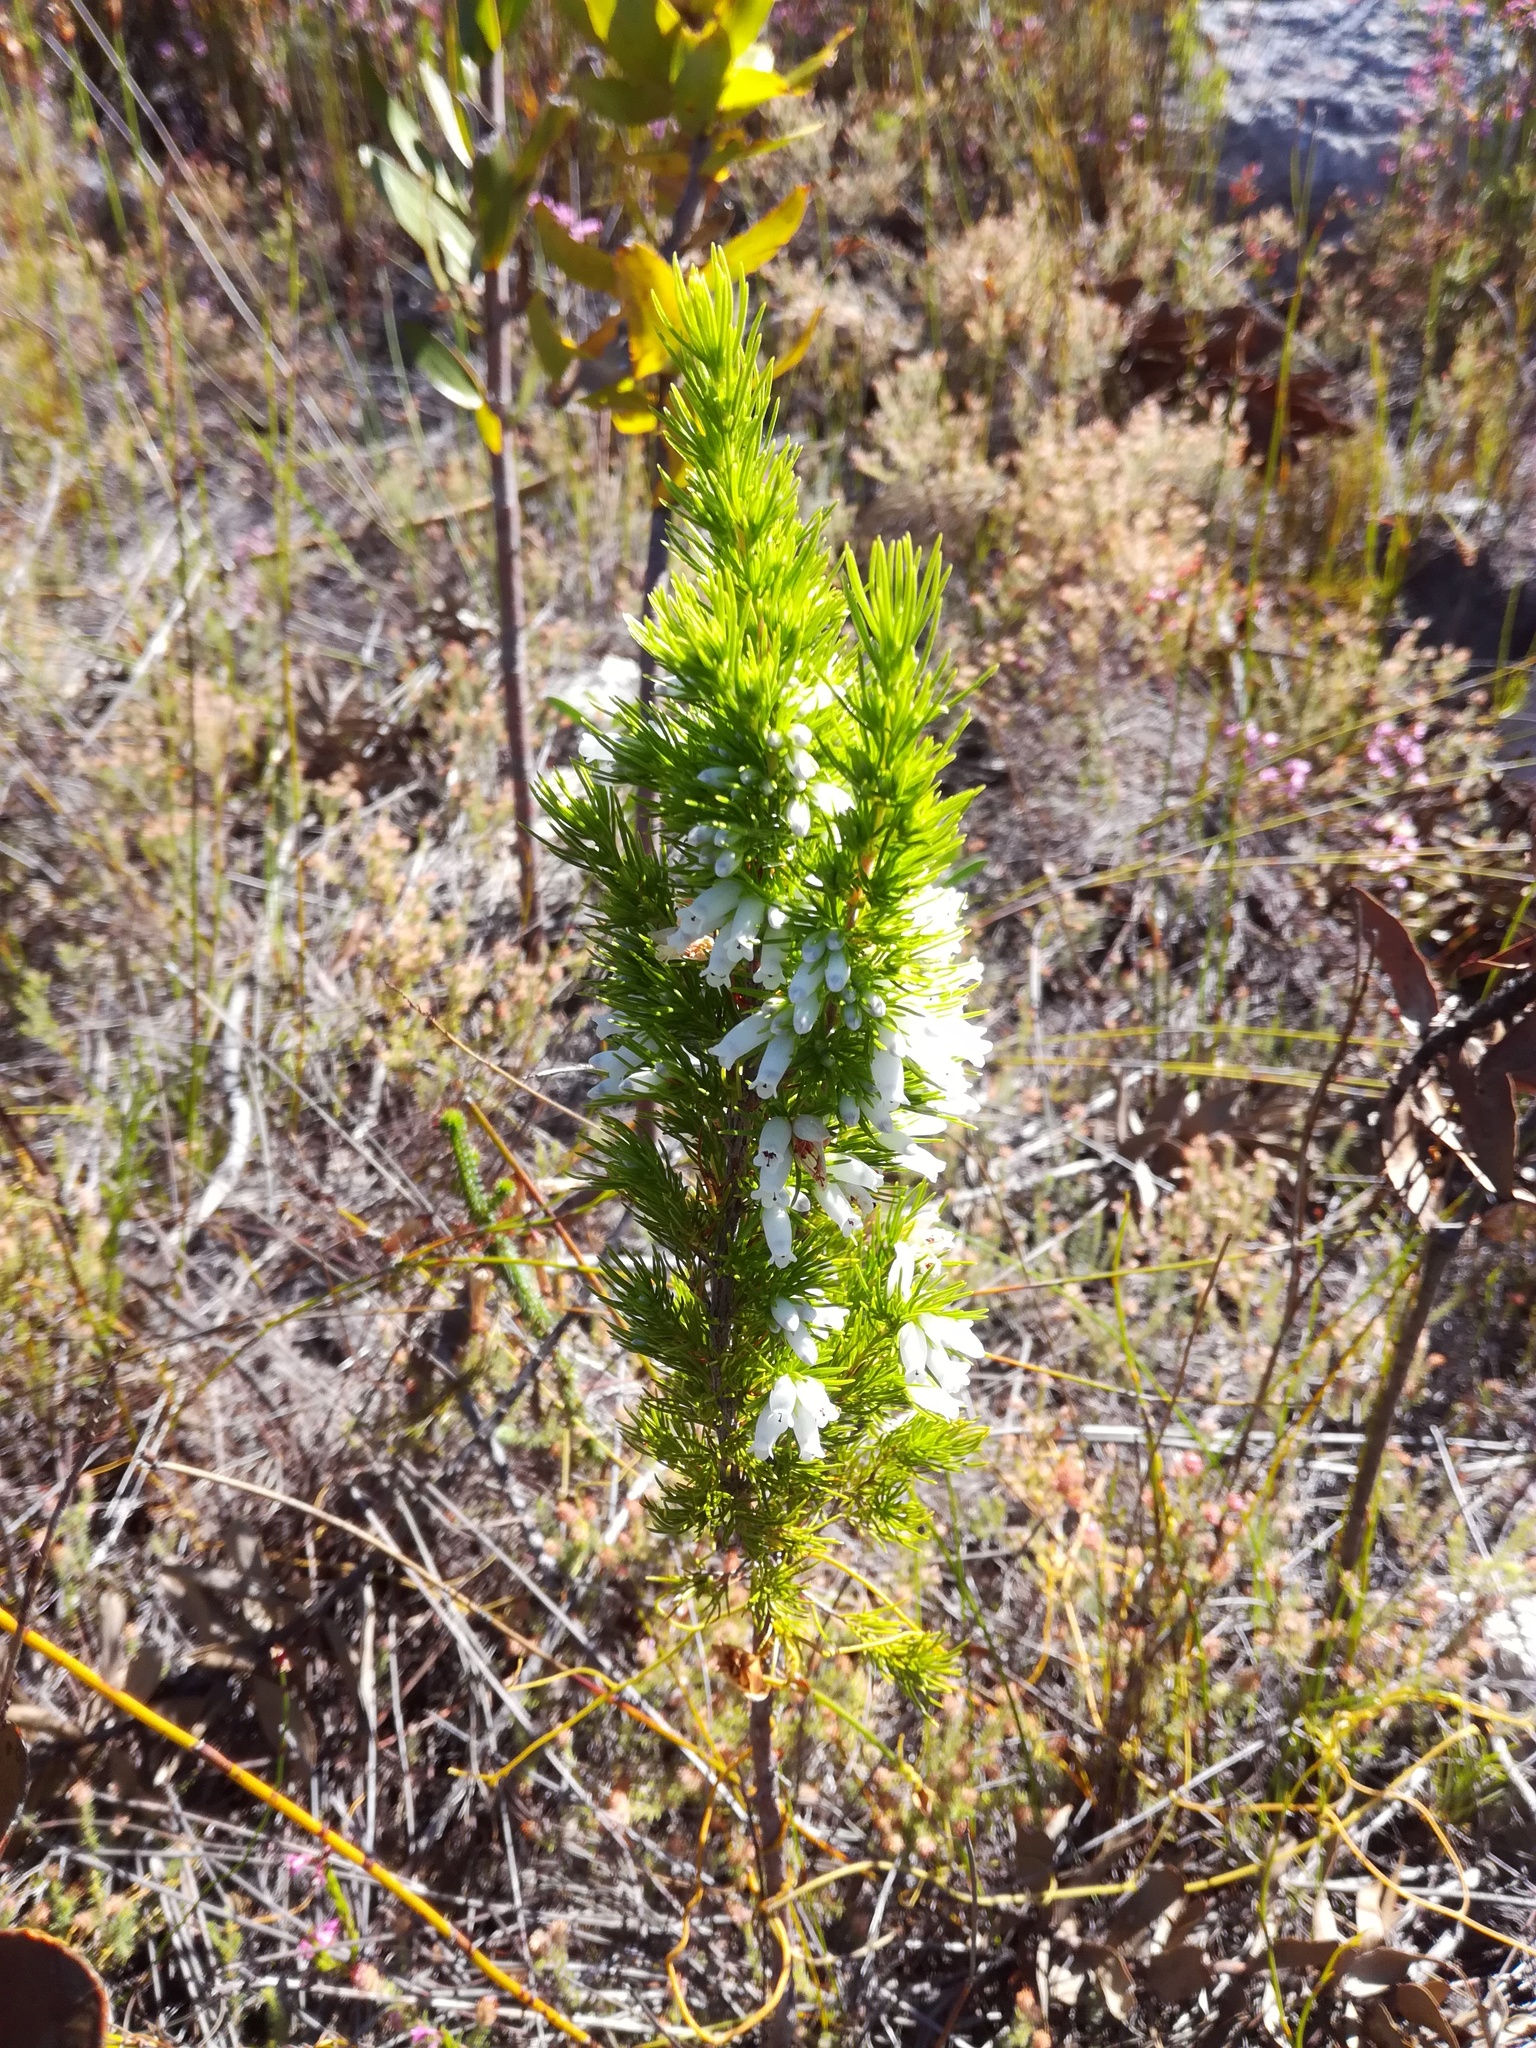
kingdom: Plantae
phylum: Tracheophyta
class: Magnoliopsida
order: Ericales
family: Ericaceae
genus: Erica
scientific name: Erica sitiens
